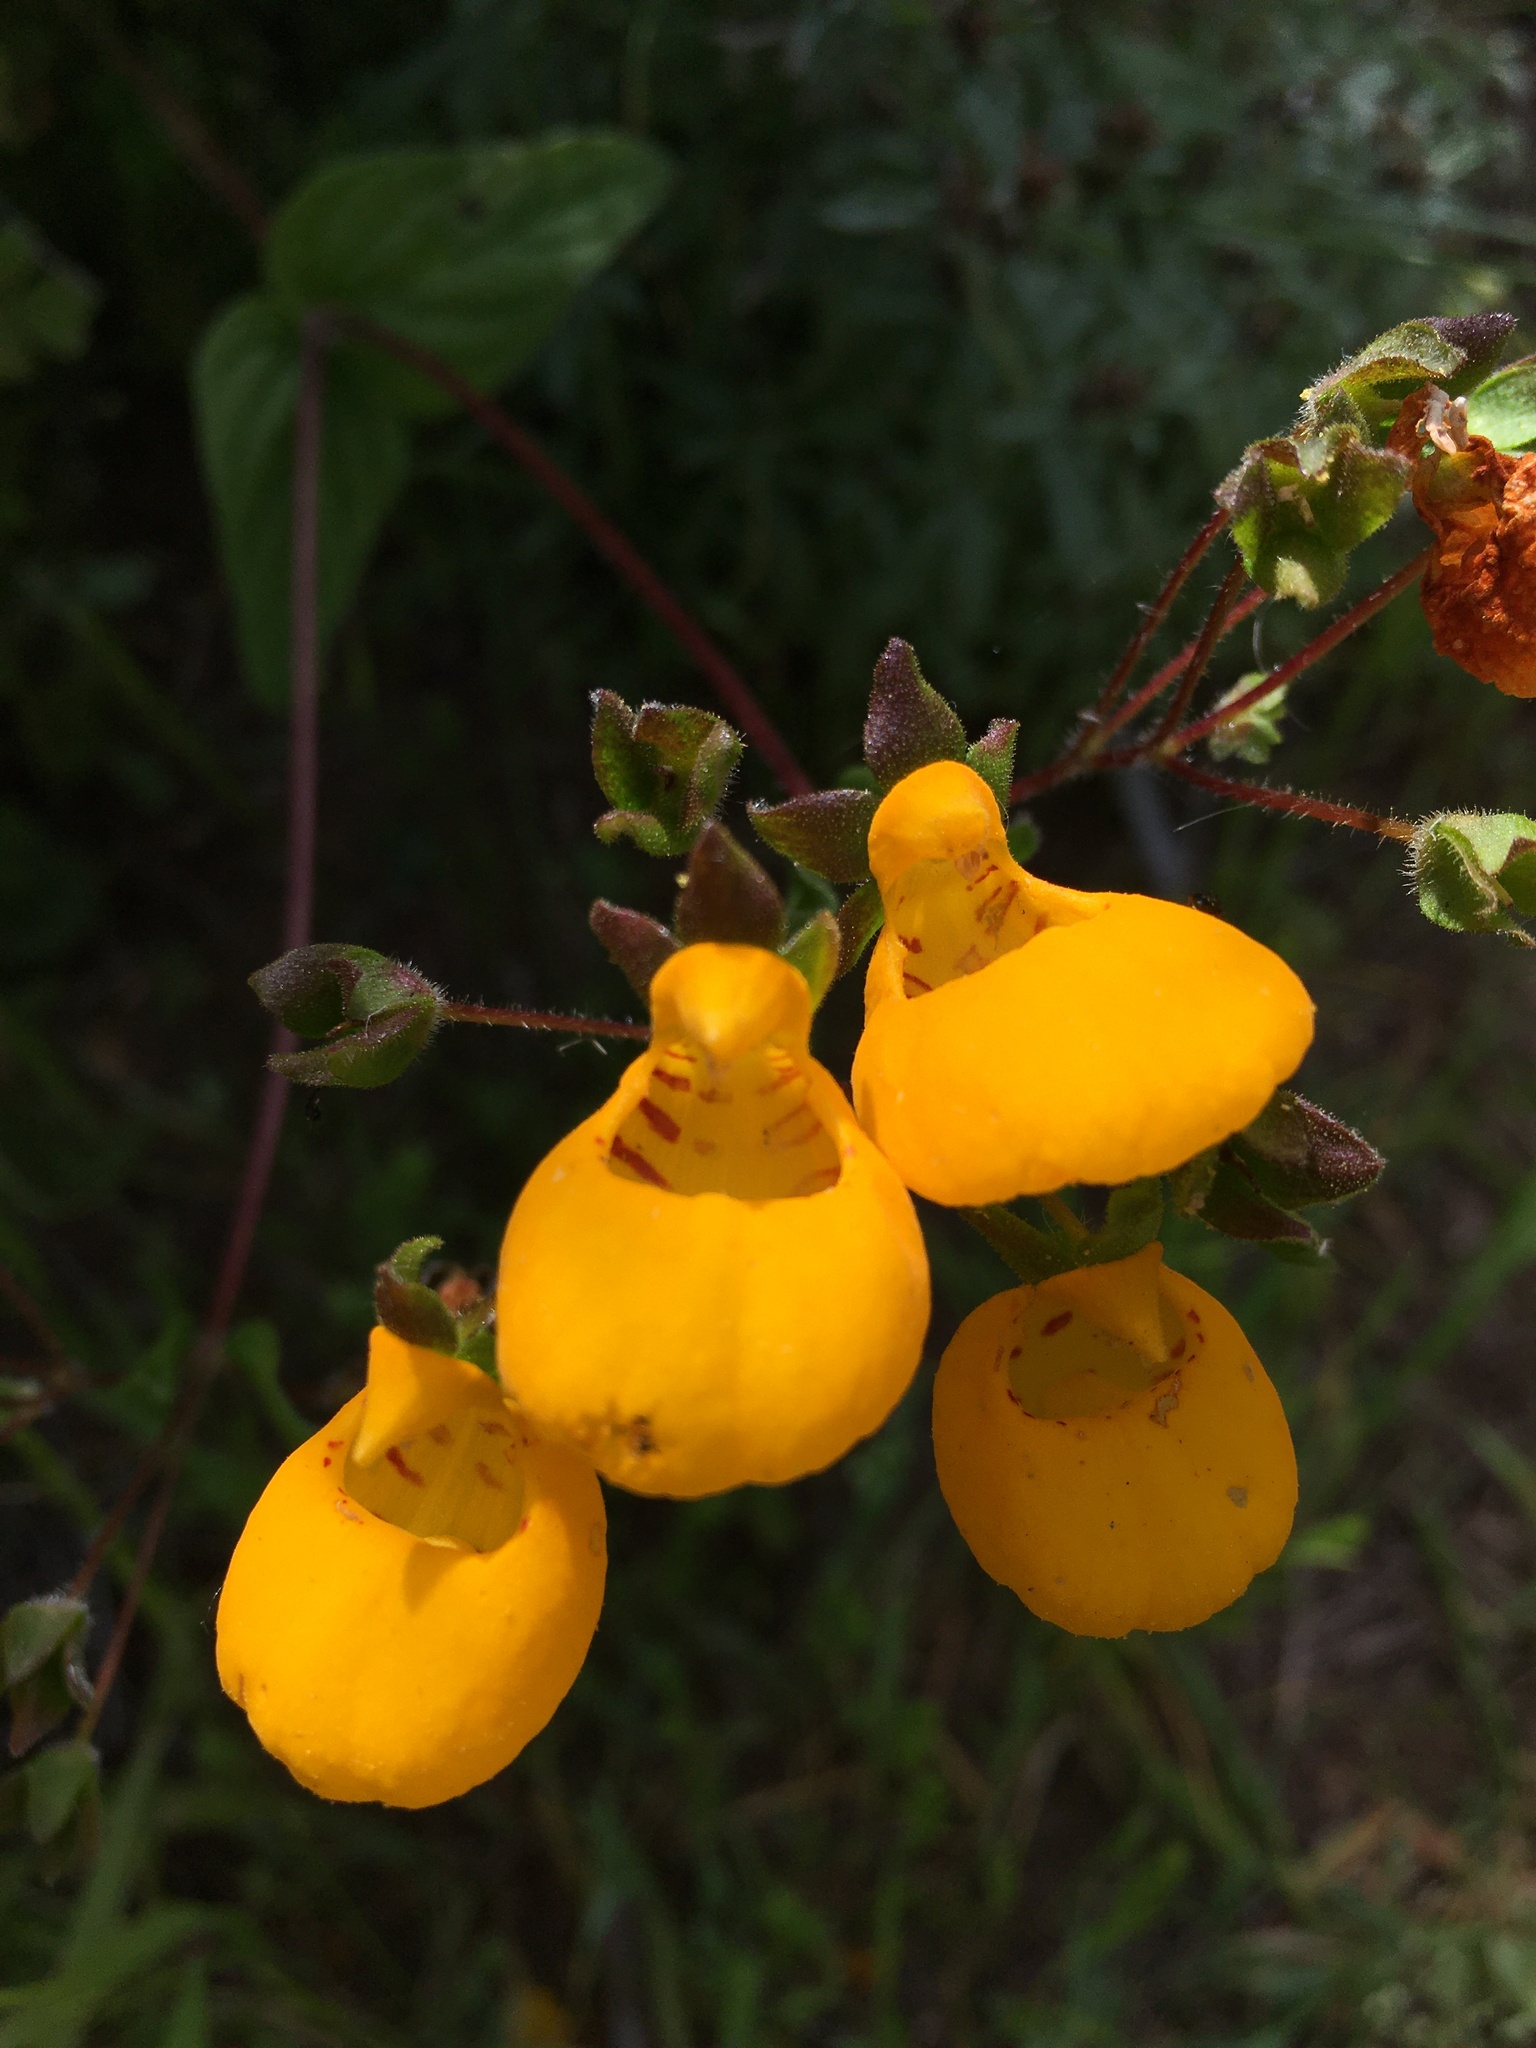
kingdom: Plantae
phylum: Tracheophyta
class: Magnoliopsida
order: Lamiales
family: Calceolariaceae
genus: Calceolaria
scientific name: Calceolaria corymbosa
